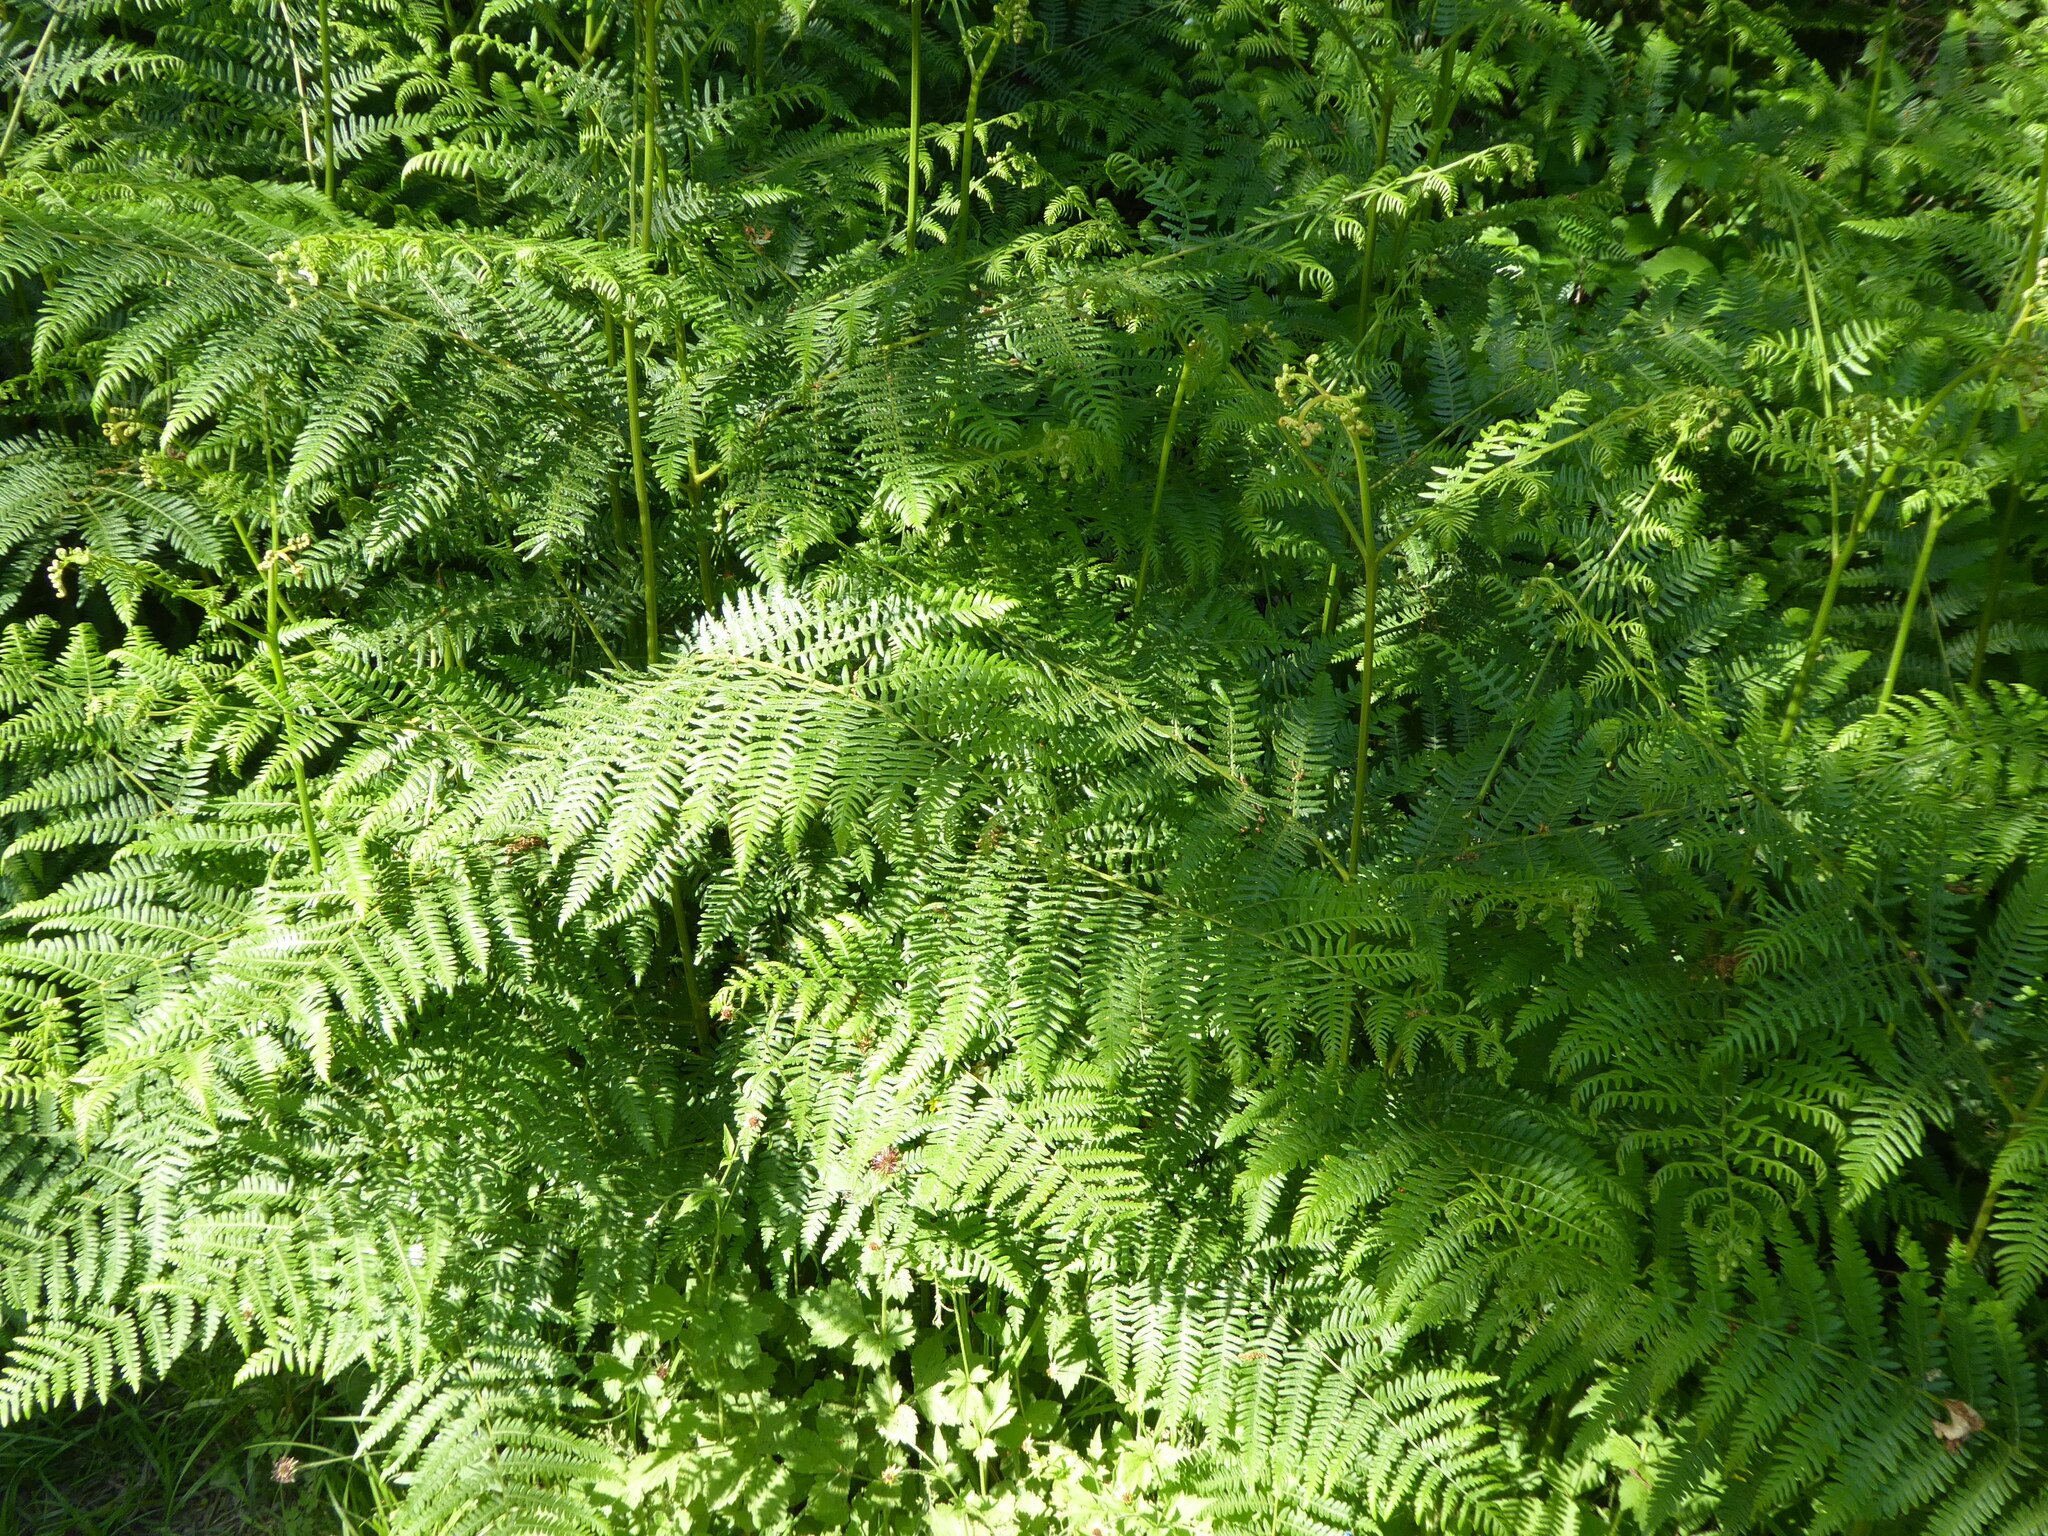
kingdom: Plantae
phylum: Tracheophyta
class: Polypodiopsida
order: Polypodiales
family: Dennstaedtiaceae
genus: Pteridium
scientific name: Pteridium aquilinum
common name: Bracken
